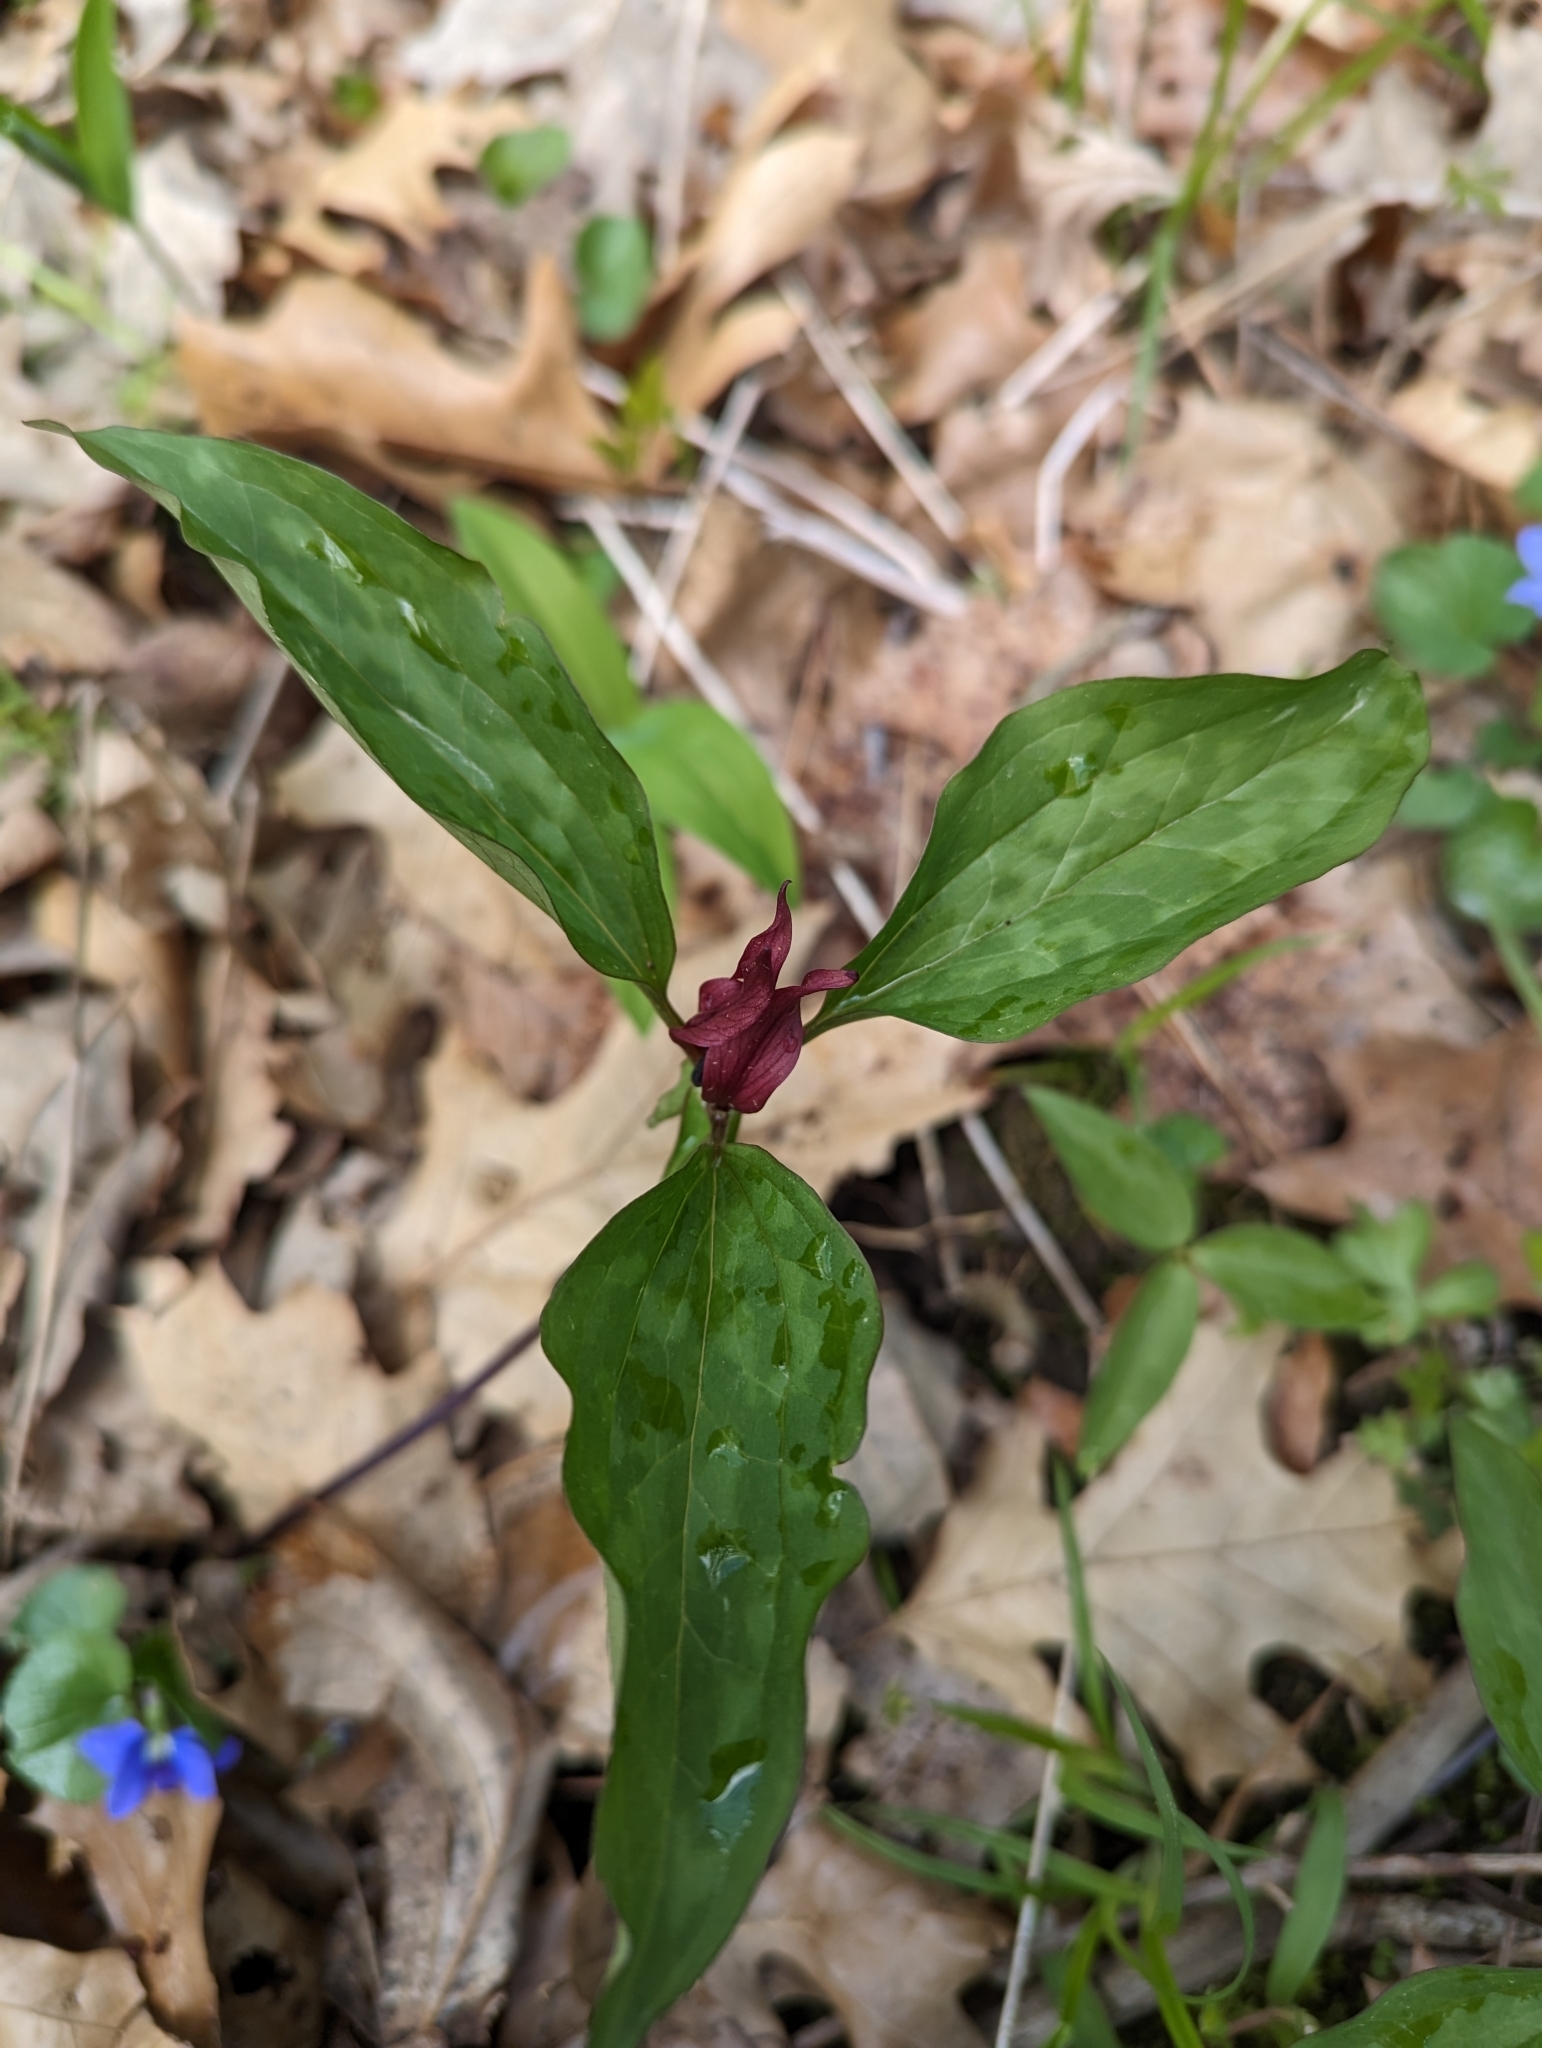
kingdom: Plantae
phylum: Tracheophyta
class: Liliopsida
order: Liliales
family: Melanthiaceae
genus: Trillium
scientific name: Trillium recurvatum
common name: Bloody butcher
